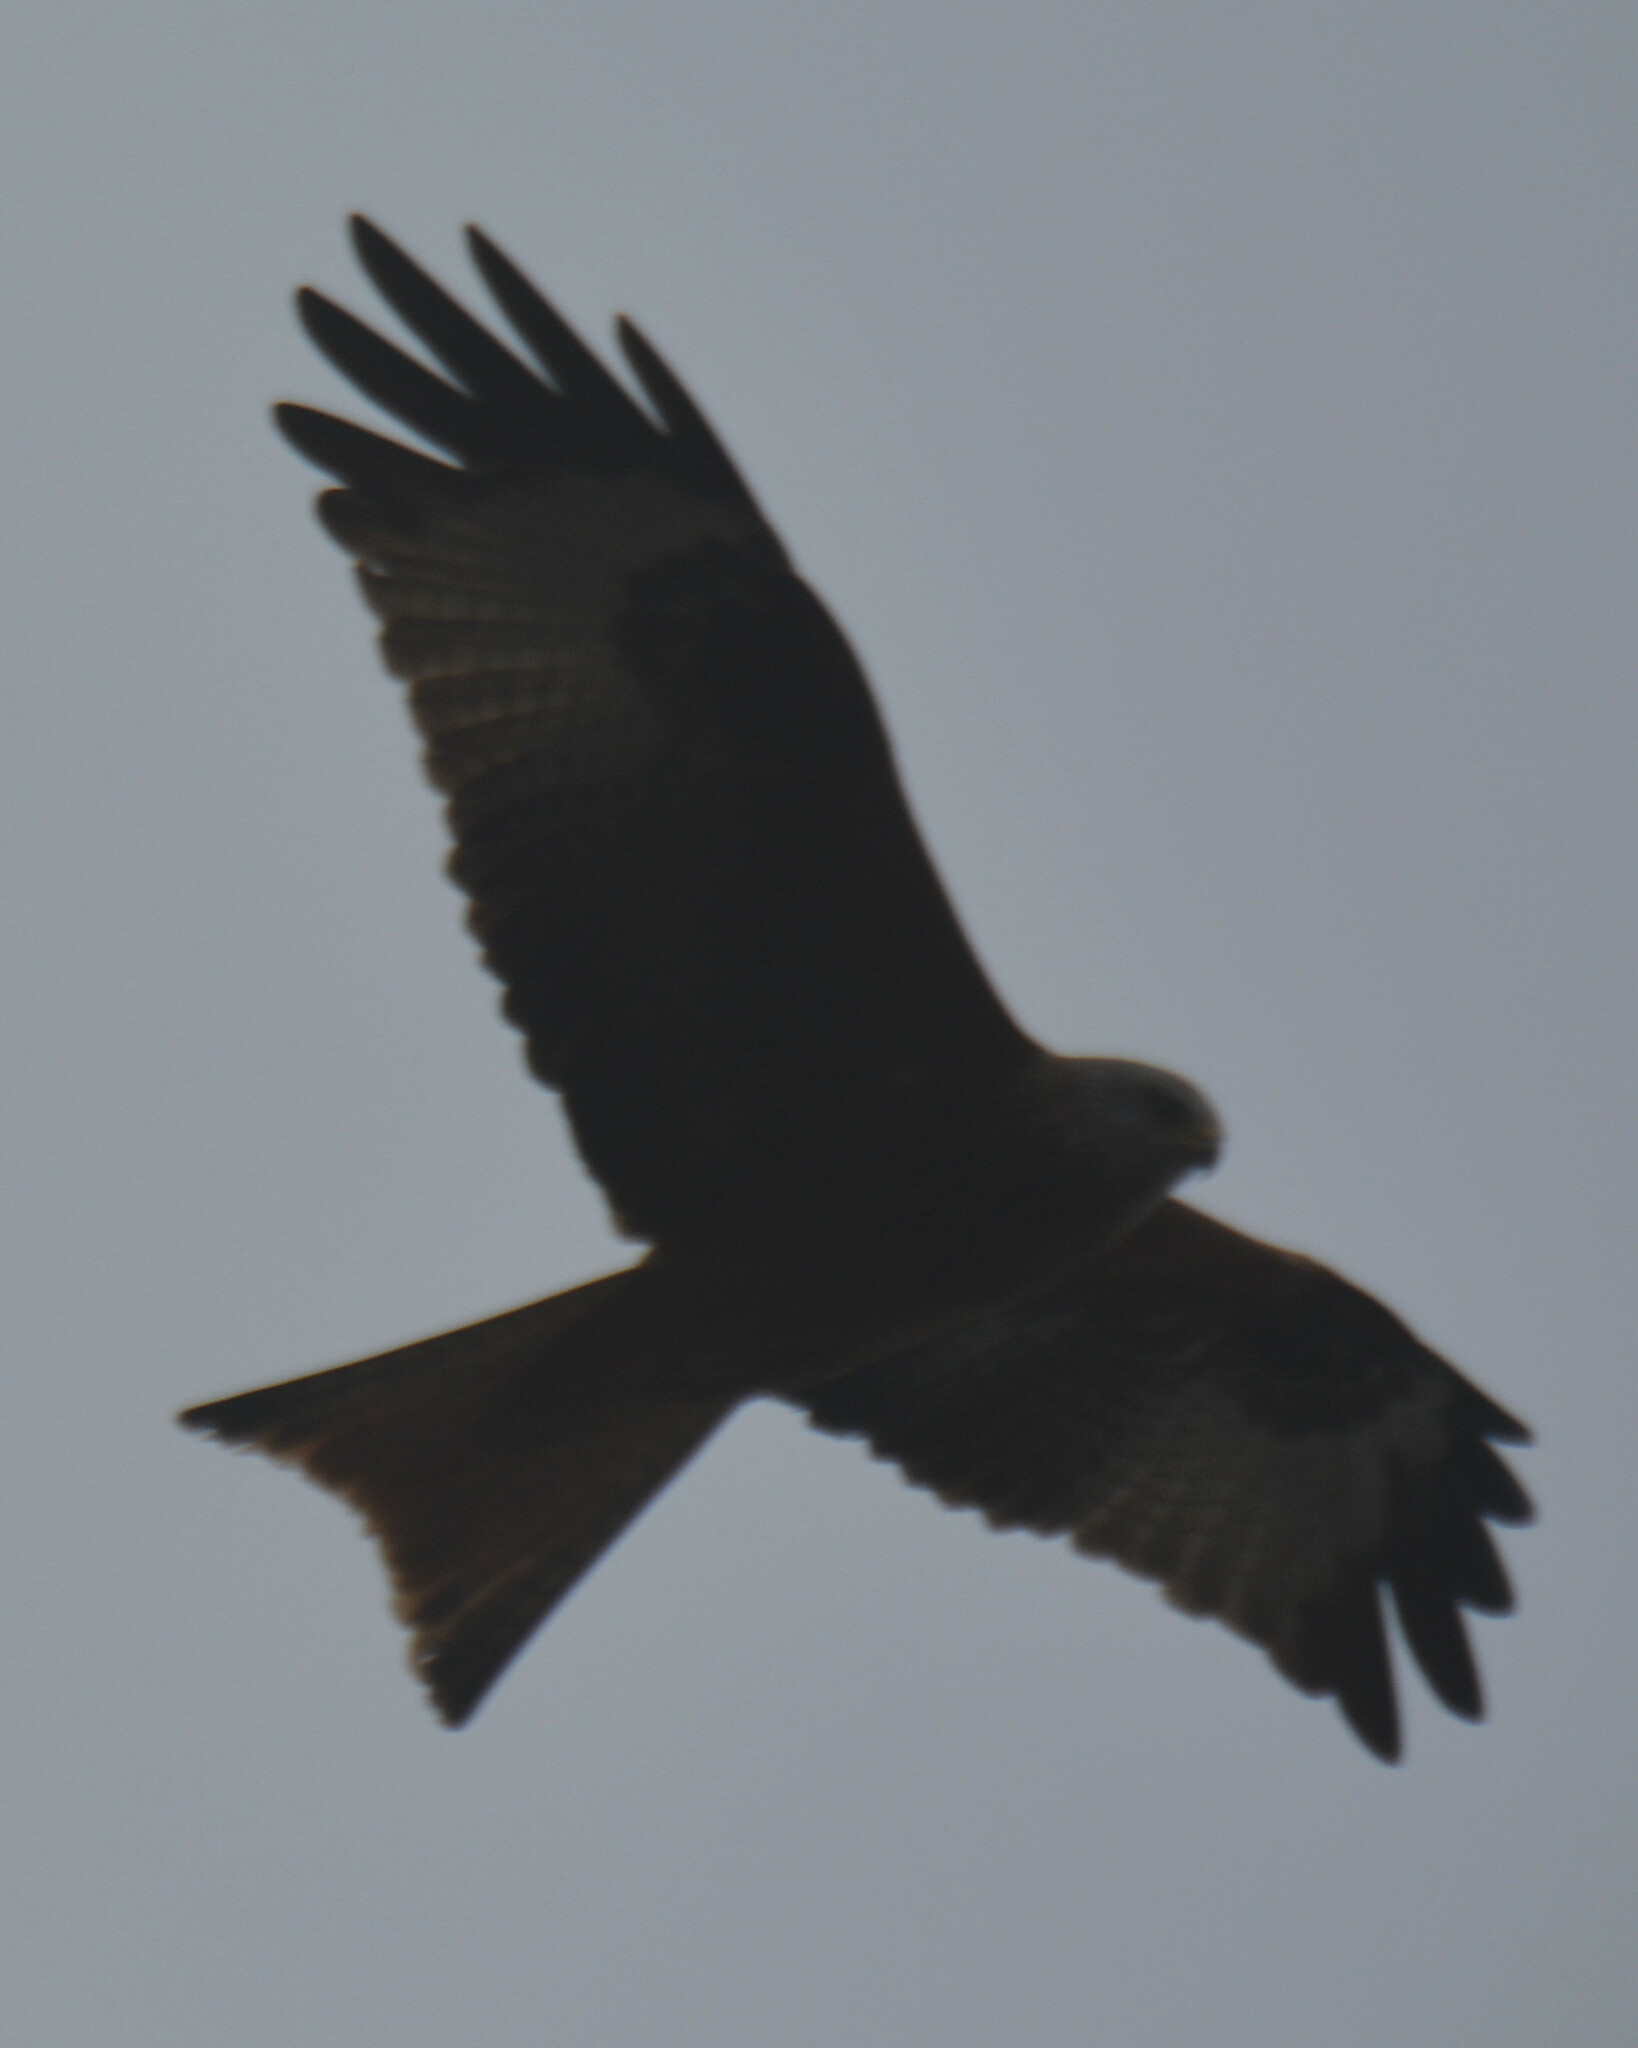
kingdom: Animalia
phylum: Chordata
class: Aves
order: Accipitriformes
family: Accipitridae
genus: Milvus
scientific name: Milvus milvus
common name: Red kite
